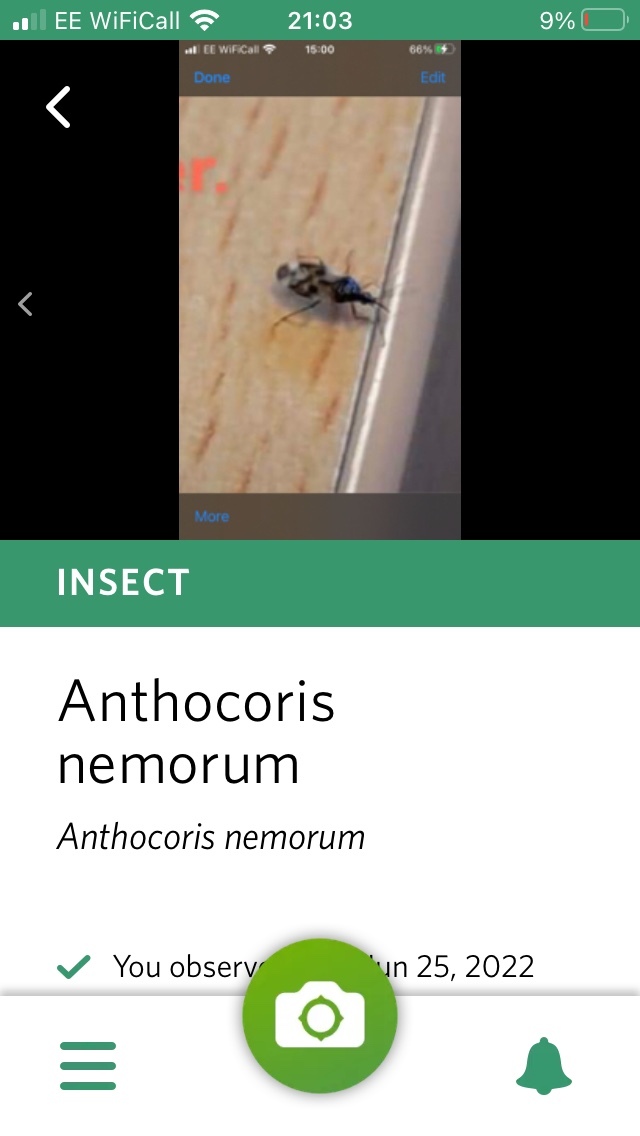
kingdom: Animalia
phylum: Arthropoda
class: Insecta
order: Hemiptera
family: Anthocoridae
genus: Anthocoris
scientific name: Anthocoris nemorum
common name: Minute pirate bug
